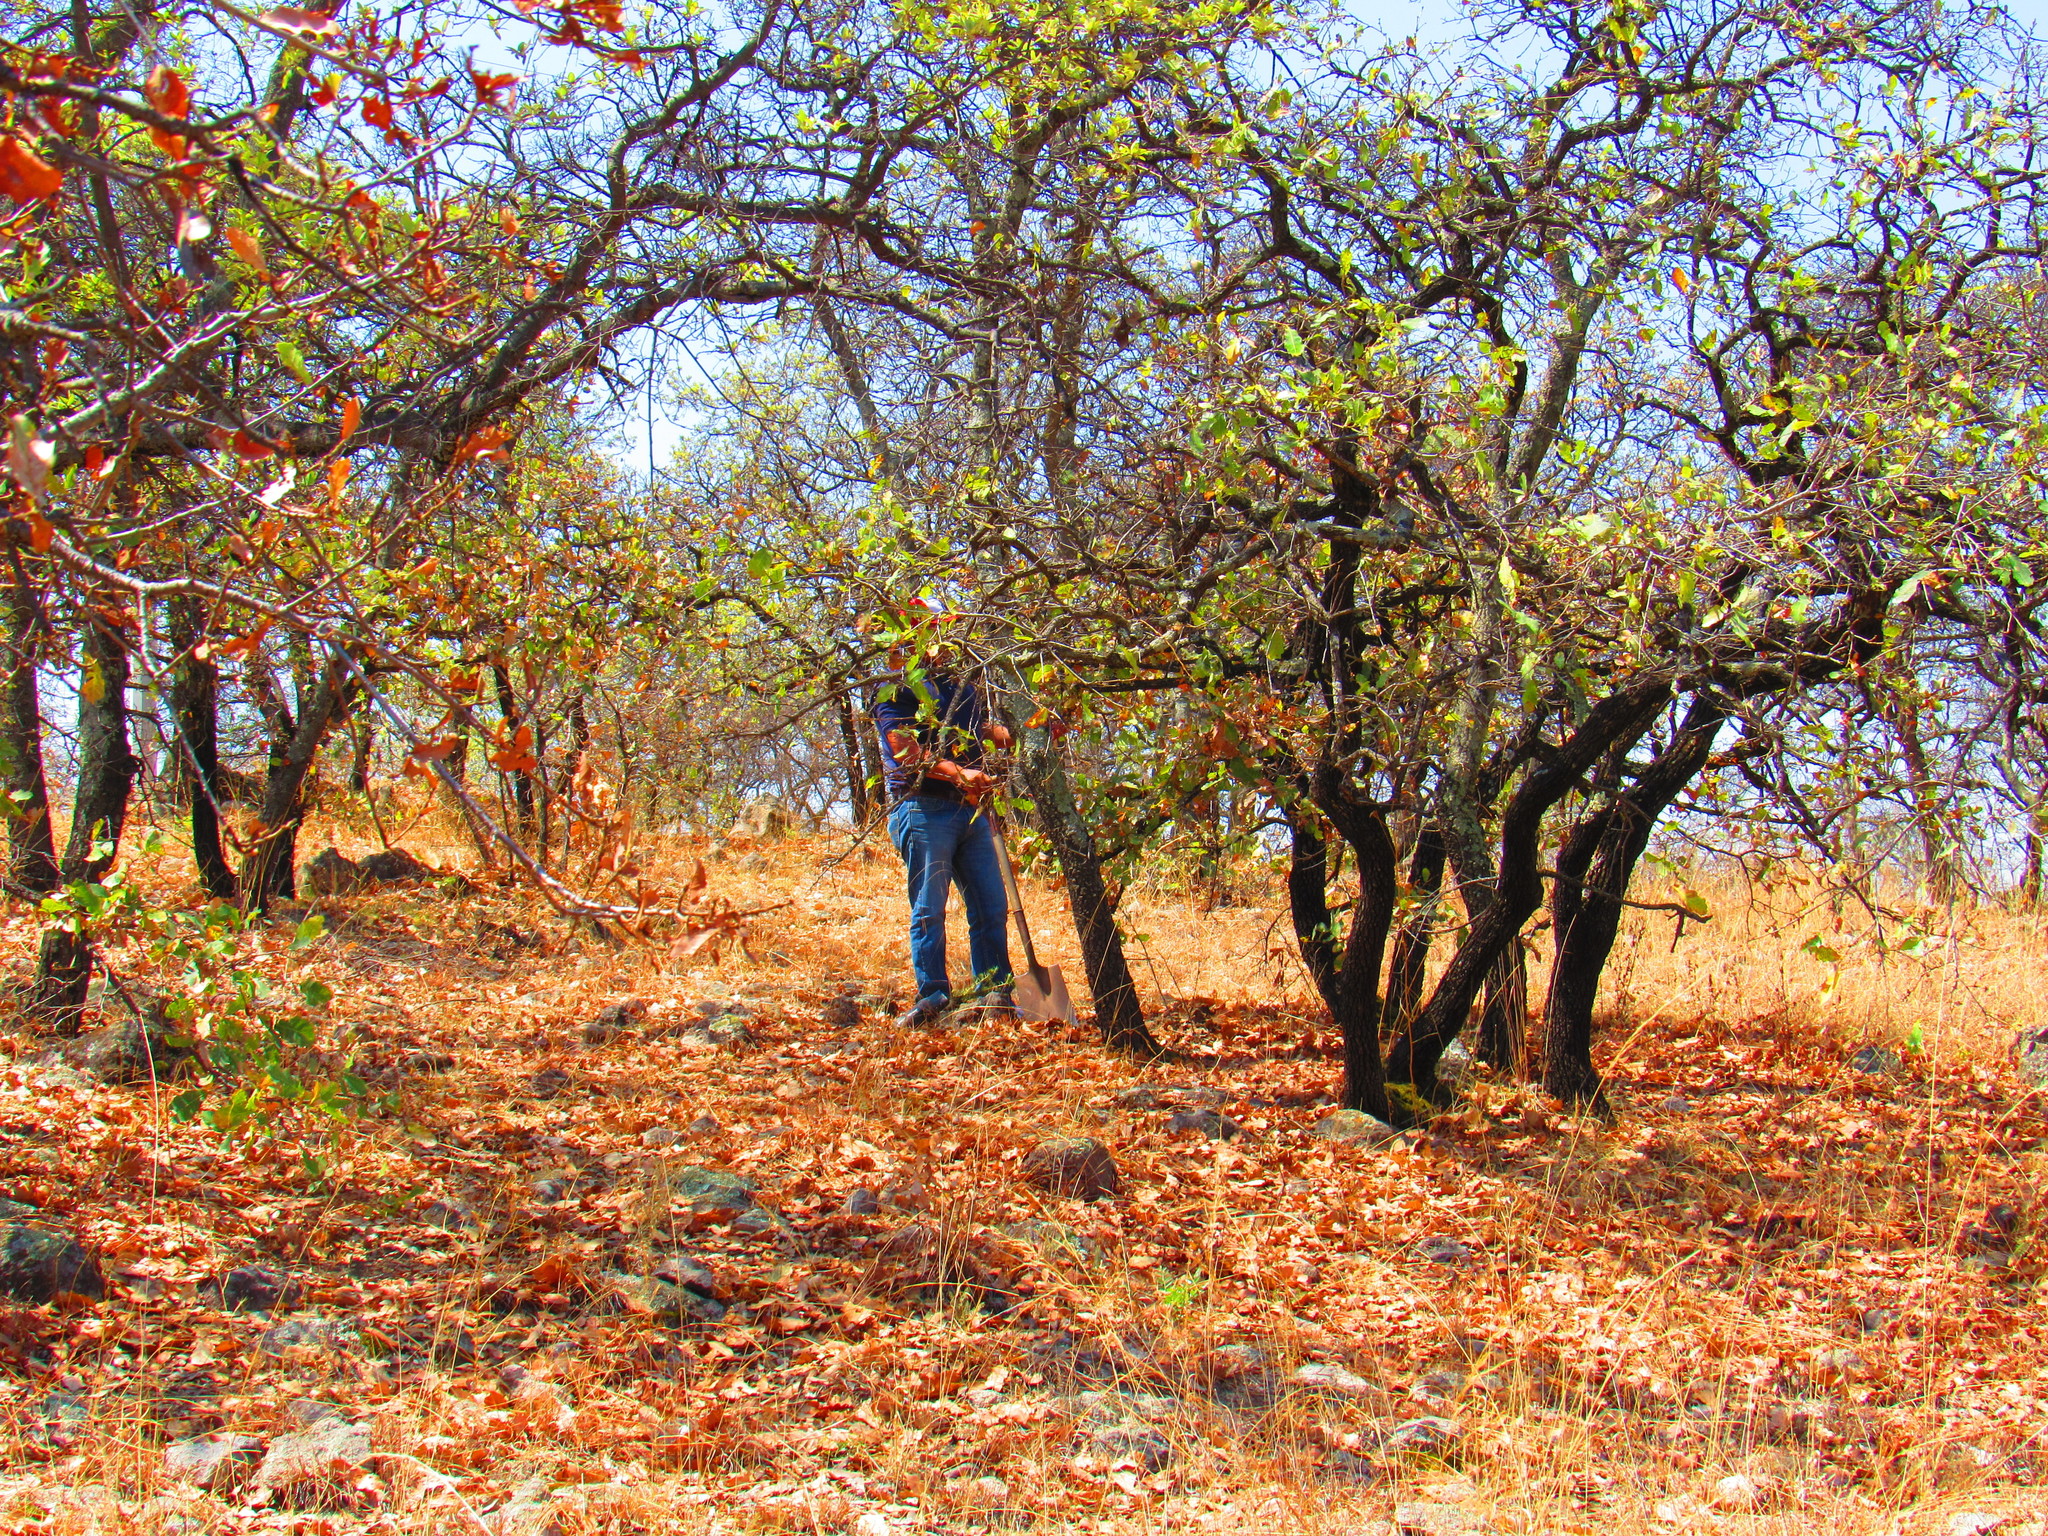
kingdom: Plantae
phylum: Tracheophyta
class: Magnoliopsida
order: Fagales
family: Fagaceae
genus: Quercus
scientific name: Quercus deserticola
